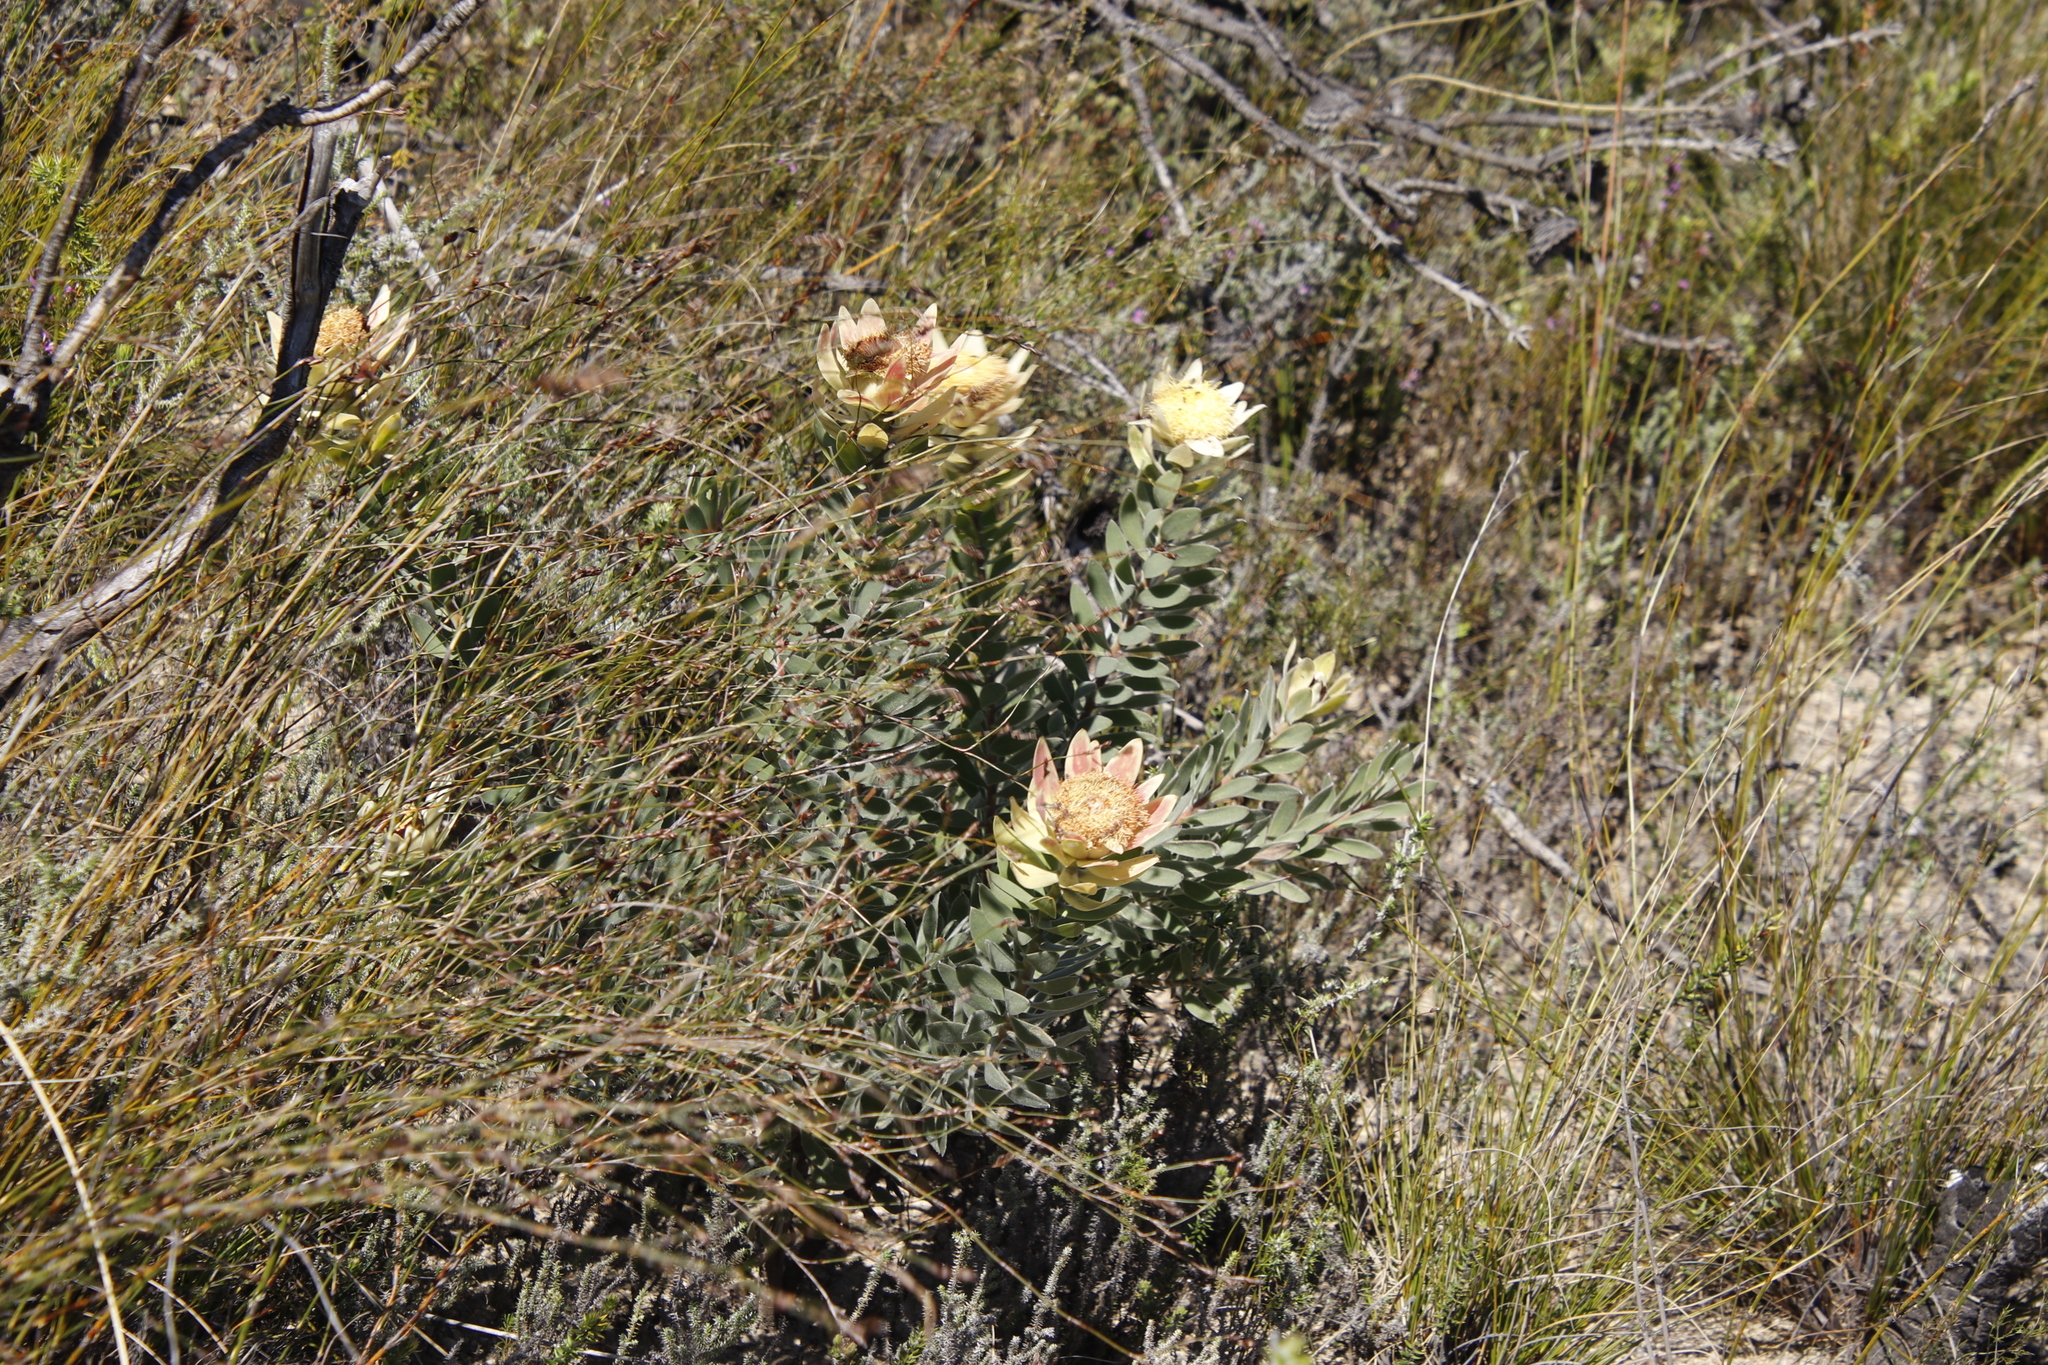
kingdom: Plantae
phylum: Tracheophyta
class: Magnoliopsida
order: Proteales
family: Proteaceae
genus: Leucadendron
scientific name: Leucadendron daphnoides
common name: Du toit's kloof conebush
